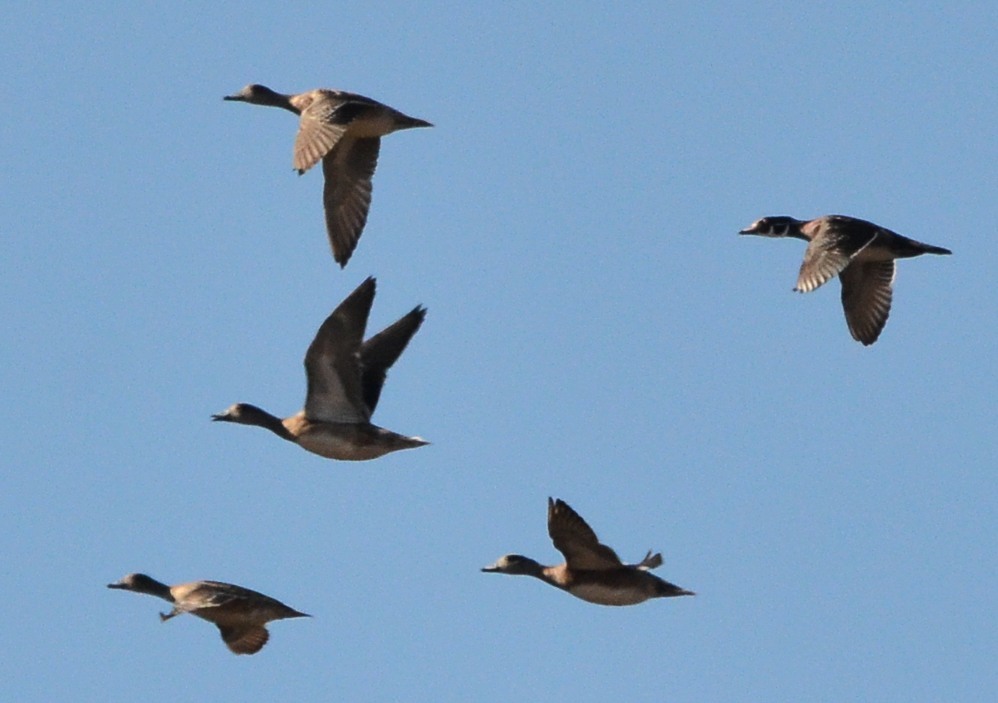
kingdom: Animalia
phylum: Chordata
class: Aves
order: Anseriformes
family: Anatidae
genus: Aix
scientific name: Aix sponsa
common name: Wood duck
